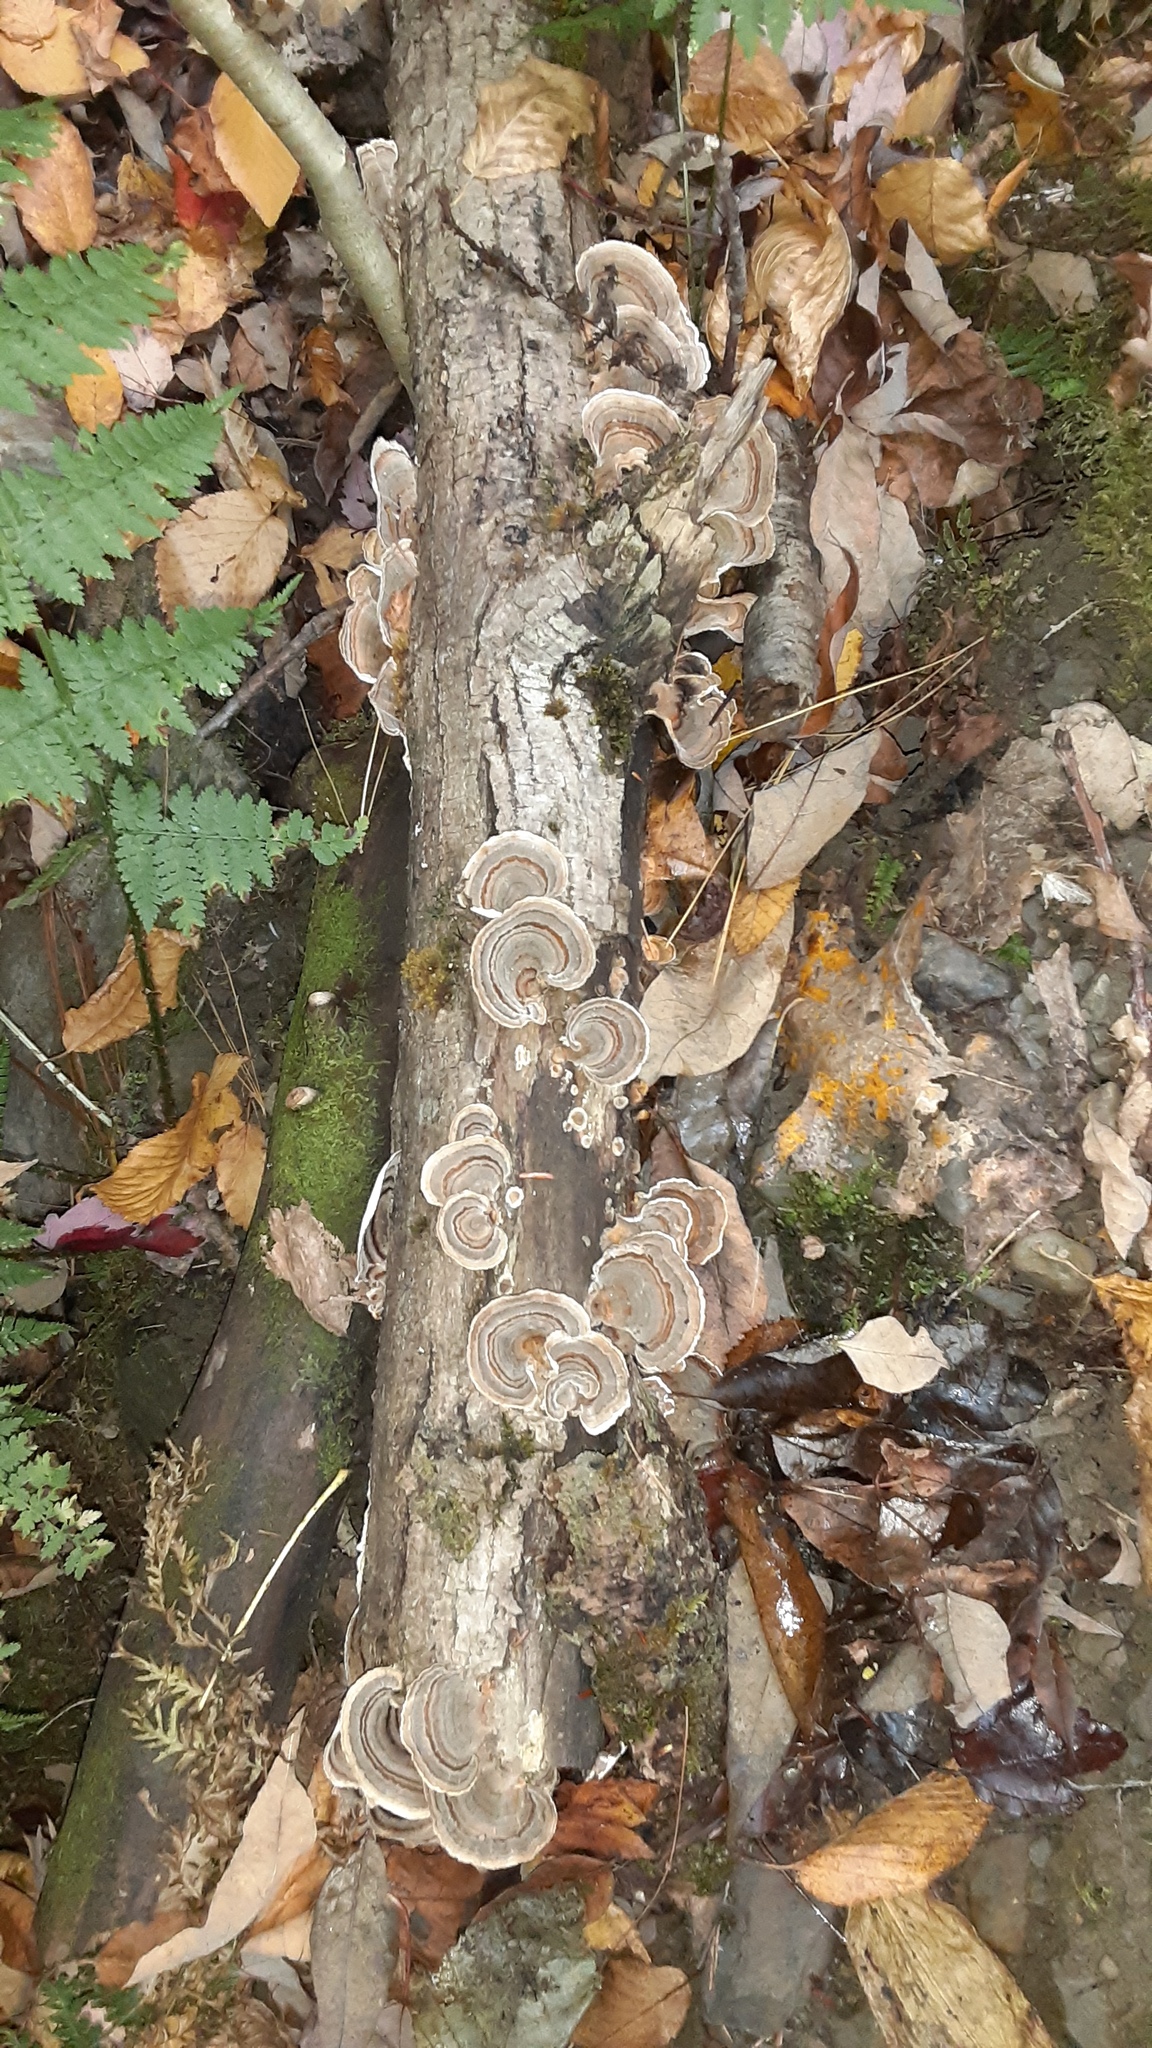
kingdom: Fungi
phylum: Basidiomycota
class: Agaricomycetes
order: Polyporales
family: Polyporaceae
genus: Trametes
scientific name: Trametes versicolor
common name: Turkeytail
